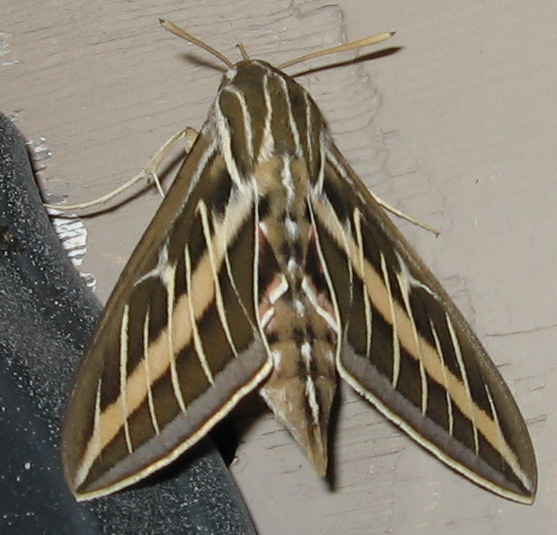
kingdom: Animalia
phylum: Arthropoda
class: Insecta
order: Lepidoptera
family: Sphingidae
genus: Hyles
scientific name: Hyles lineata
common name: White-lined sphinx
